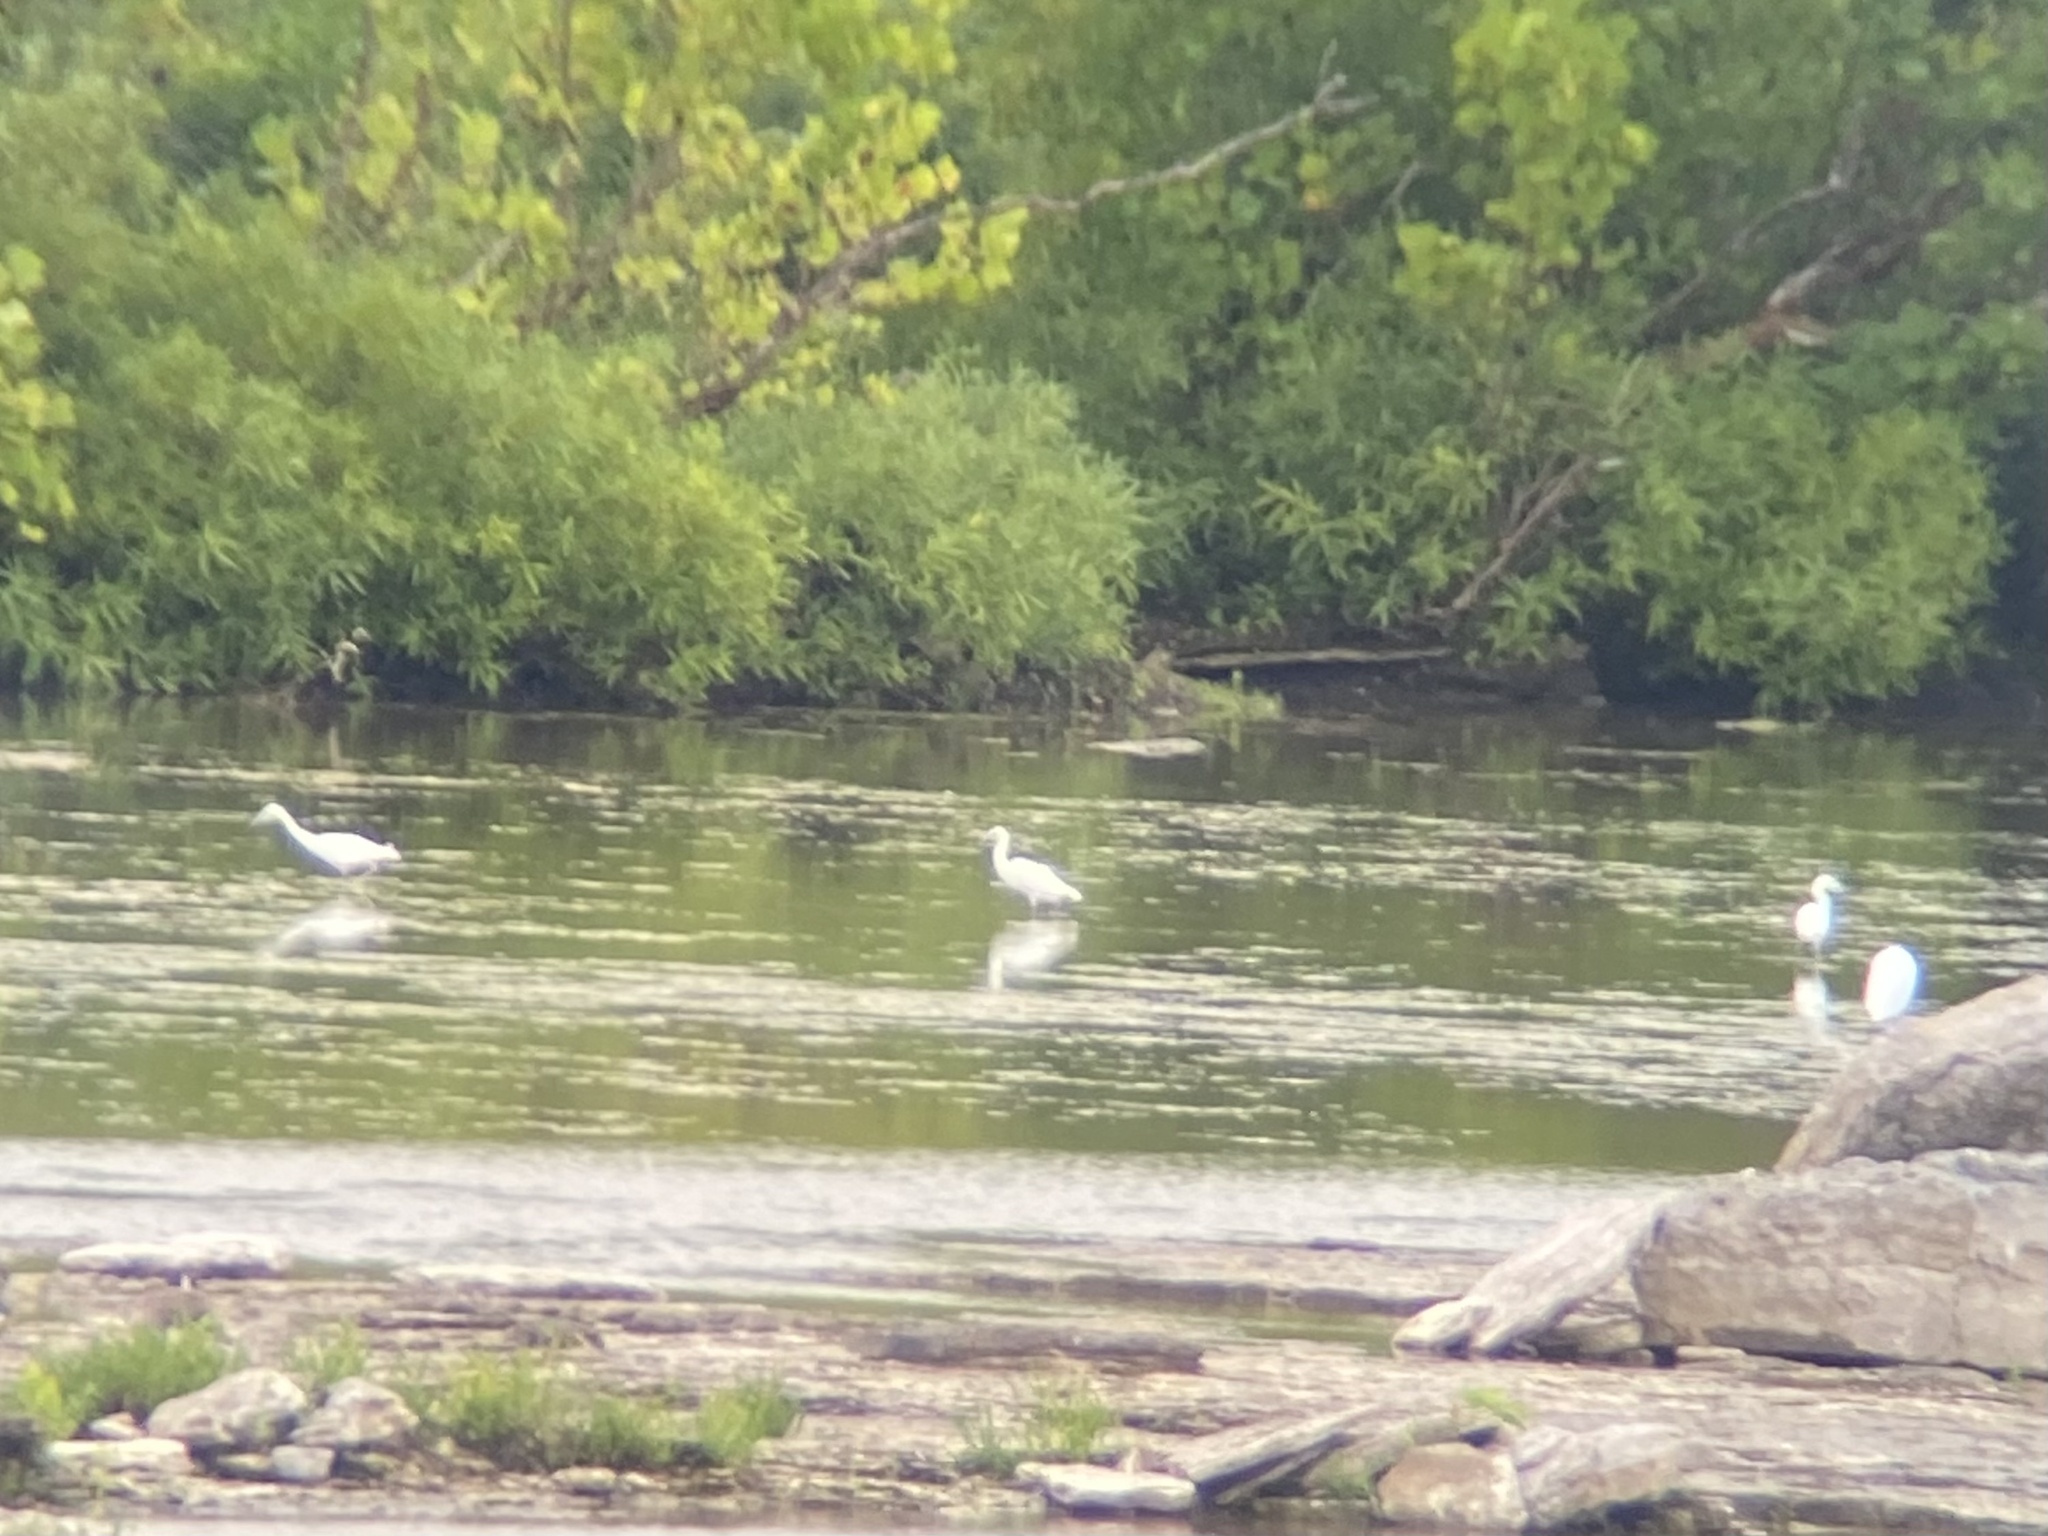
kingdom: Animalia
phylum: Chordata
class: Aves
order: Pelecaniformes
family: Ardeidae
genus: Egretta
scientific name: Egretta caerulea
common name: Little blue heron
